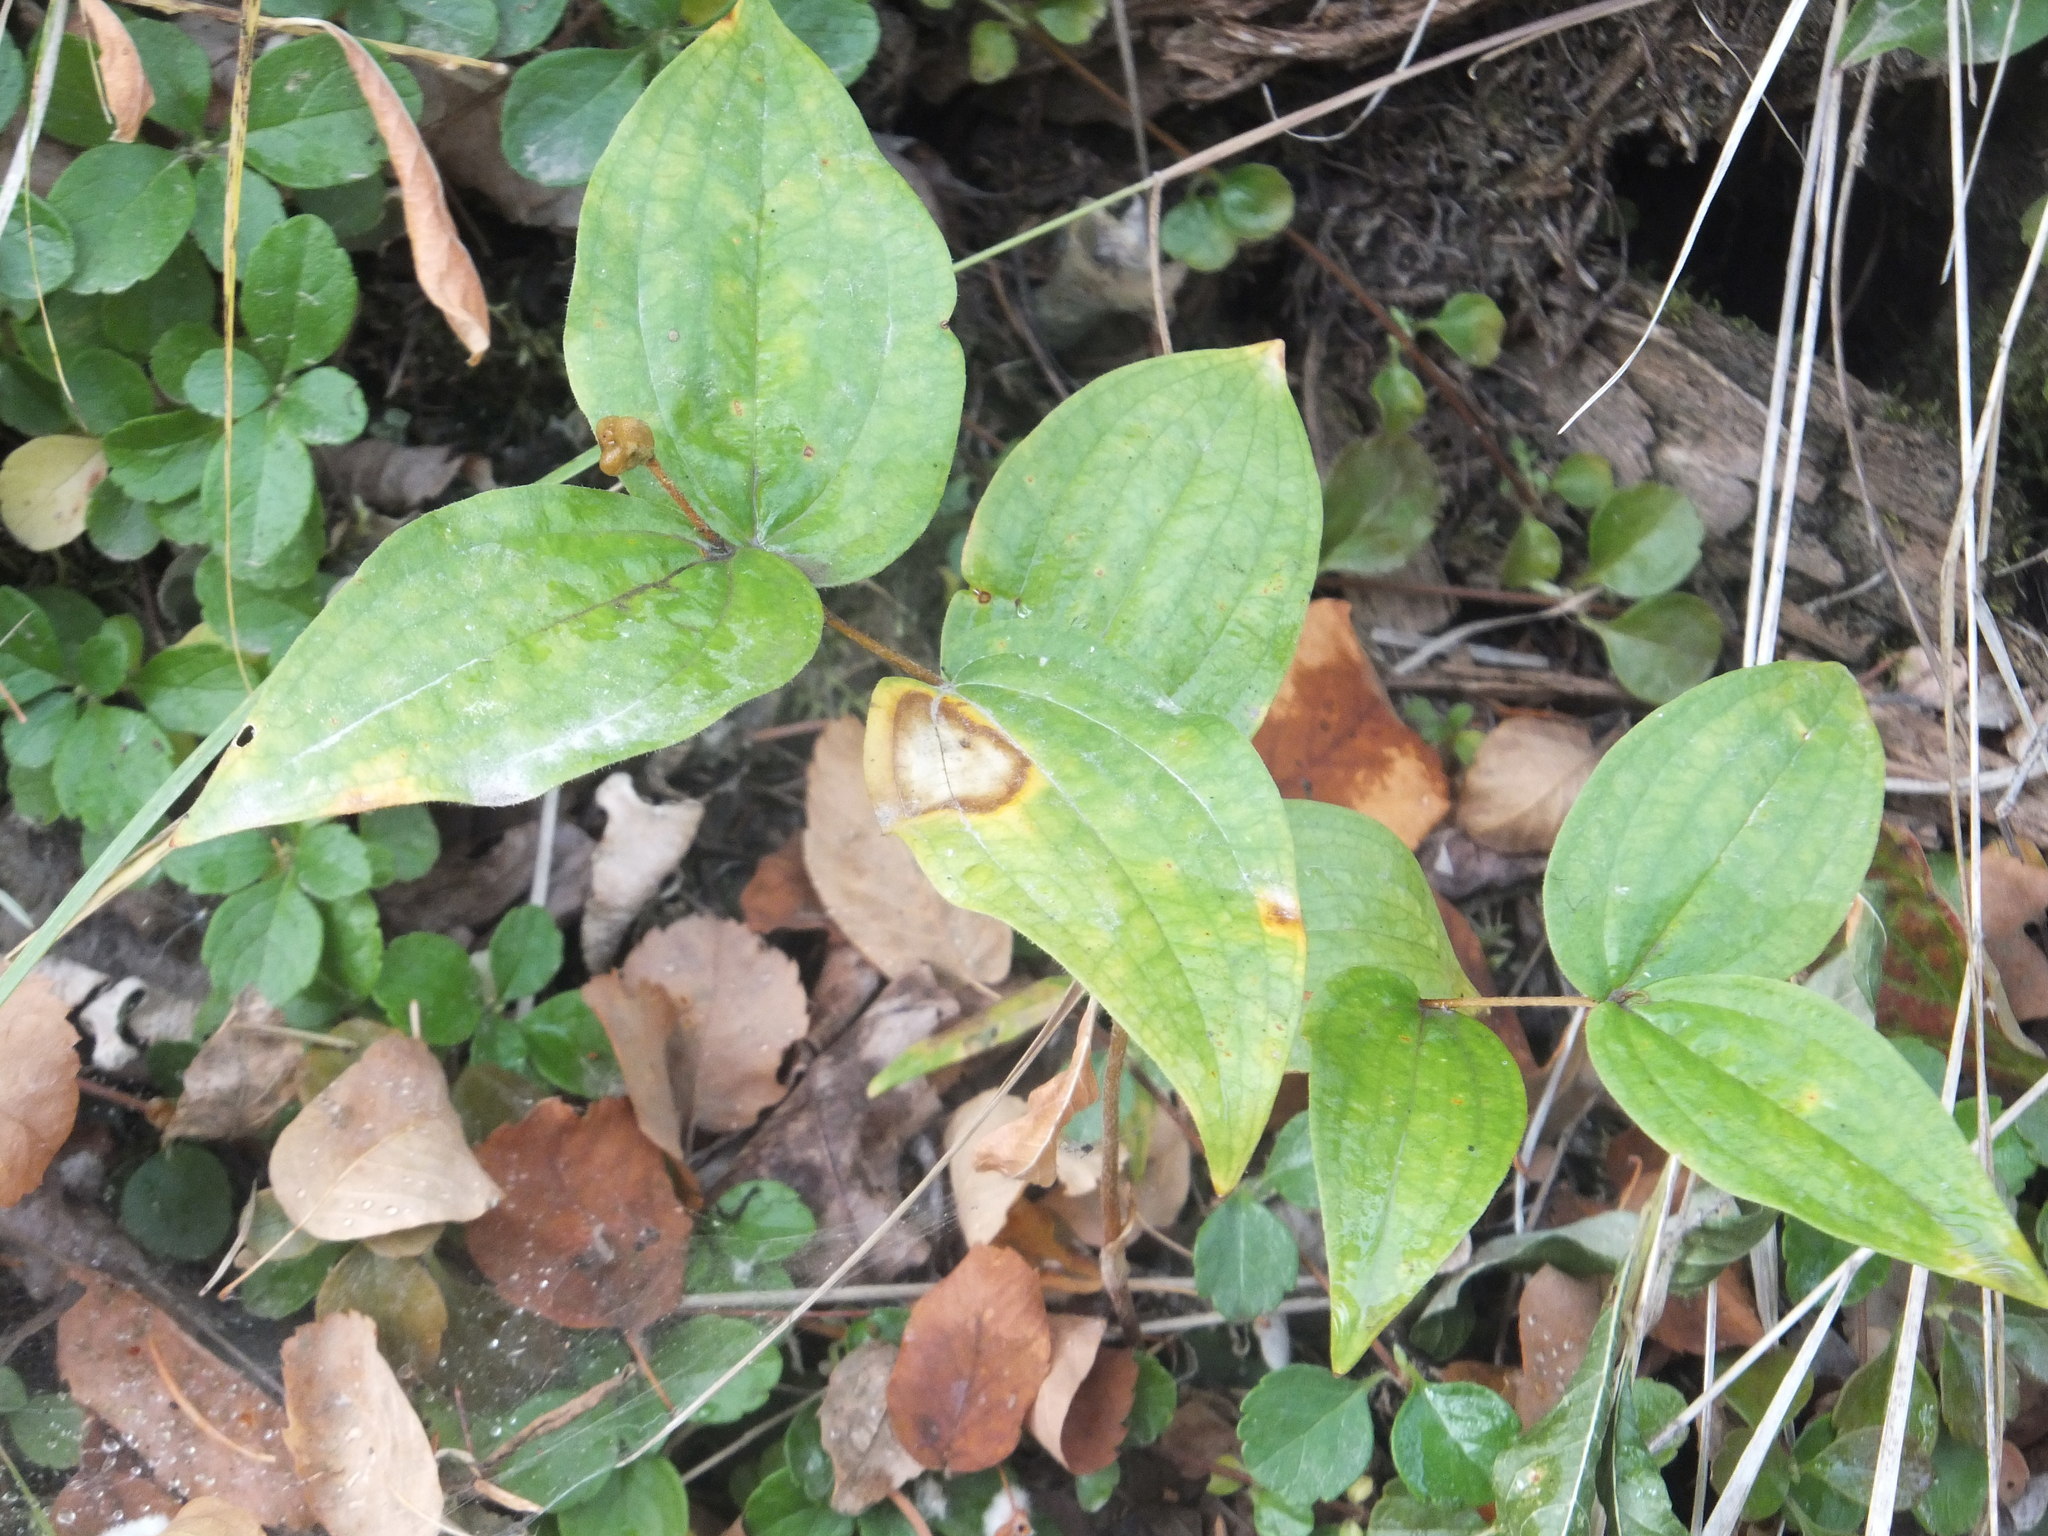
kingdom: Plantae
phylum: Tracheophyta
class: Liliopsida
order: Liliales
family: Liliaceae
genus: Prosartes
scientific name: Prosartes trachycarpa
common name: Rough-fruit fairy-bells
